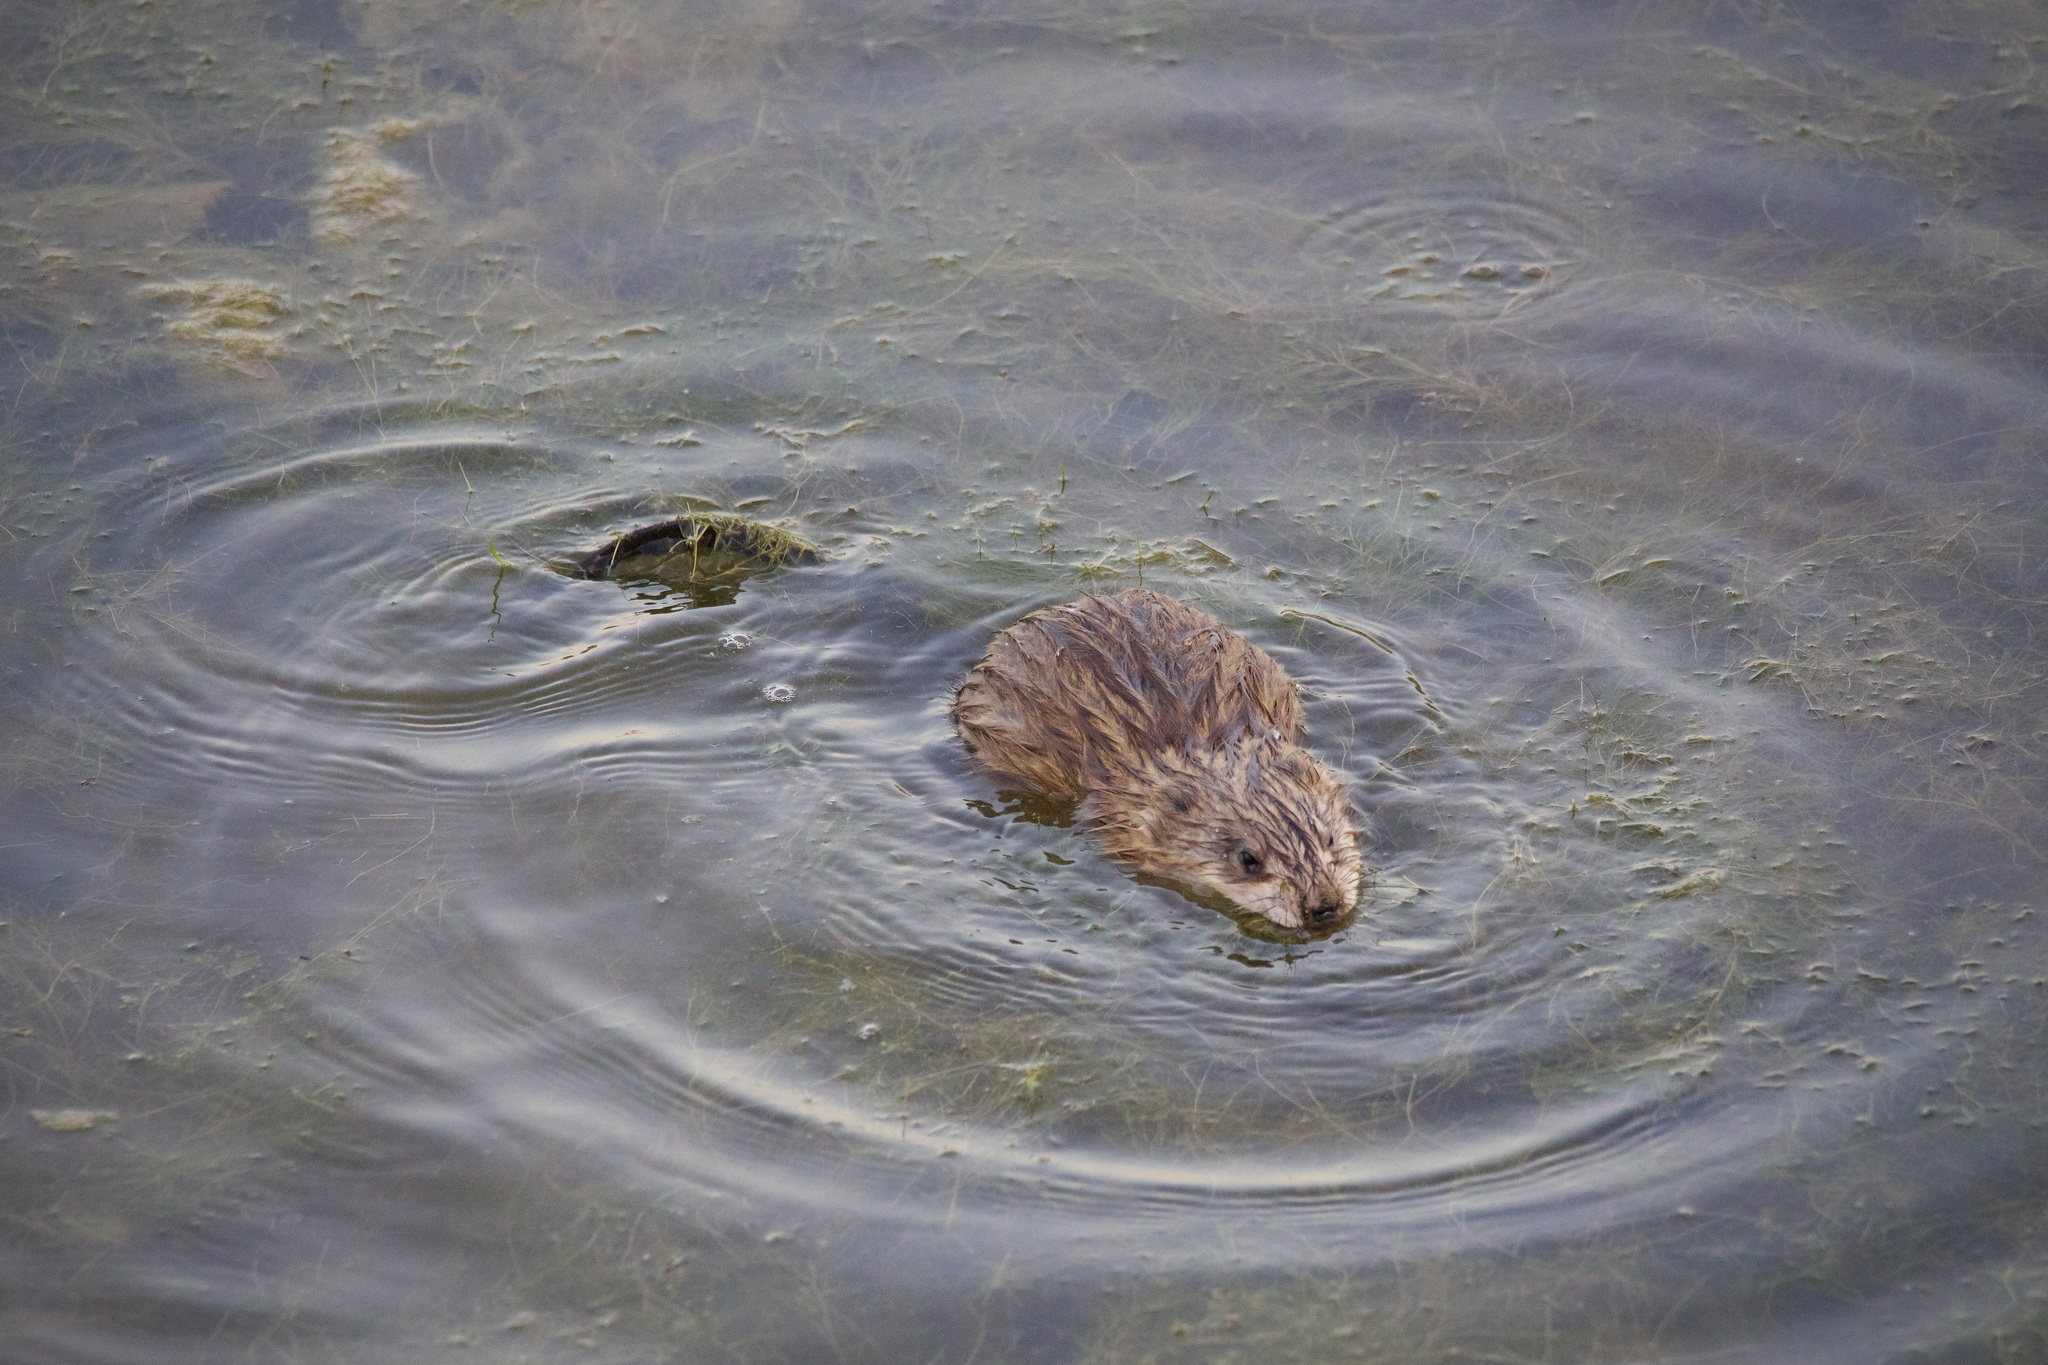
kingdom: Animalia
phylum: Chordata
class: Mammalia
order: Rodentia
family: Cricetidae
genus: Ondatra
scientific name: Ondatra zibethicus
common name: Muskrat
